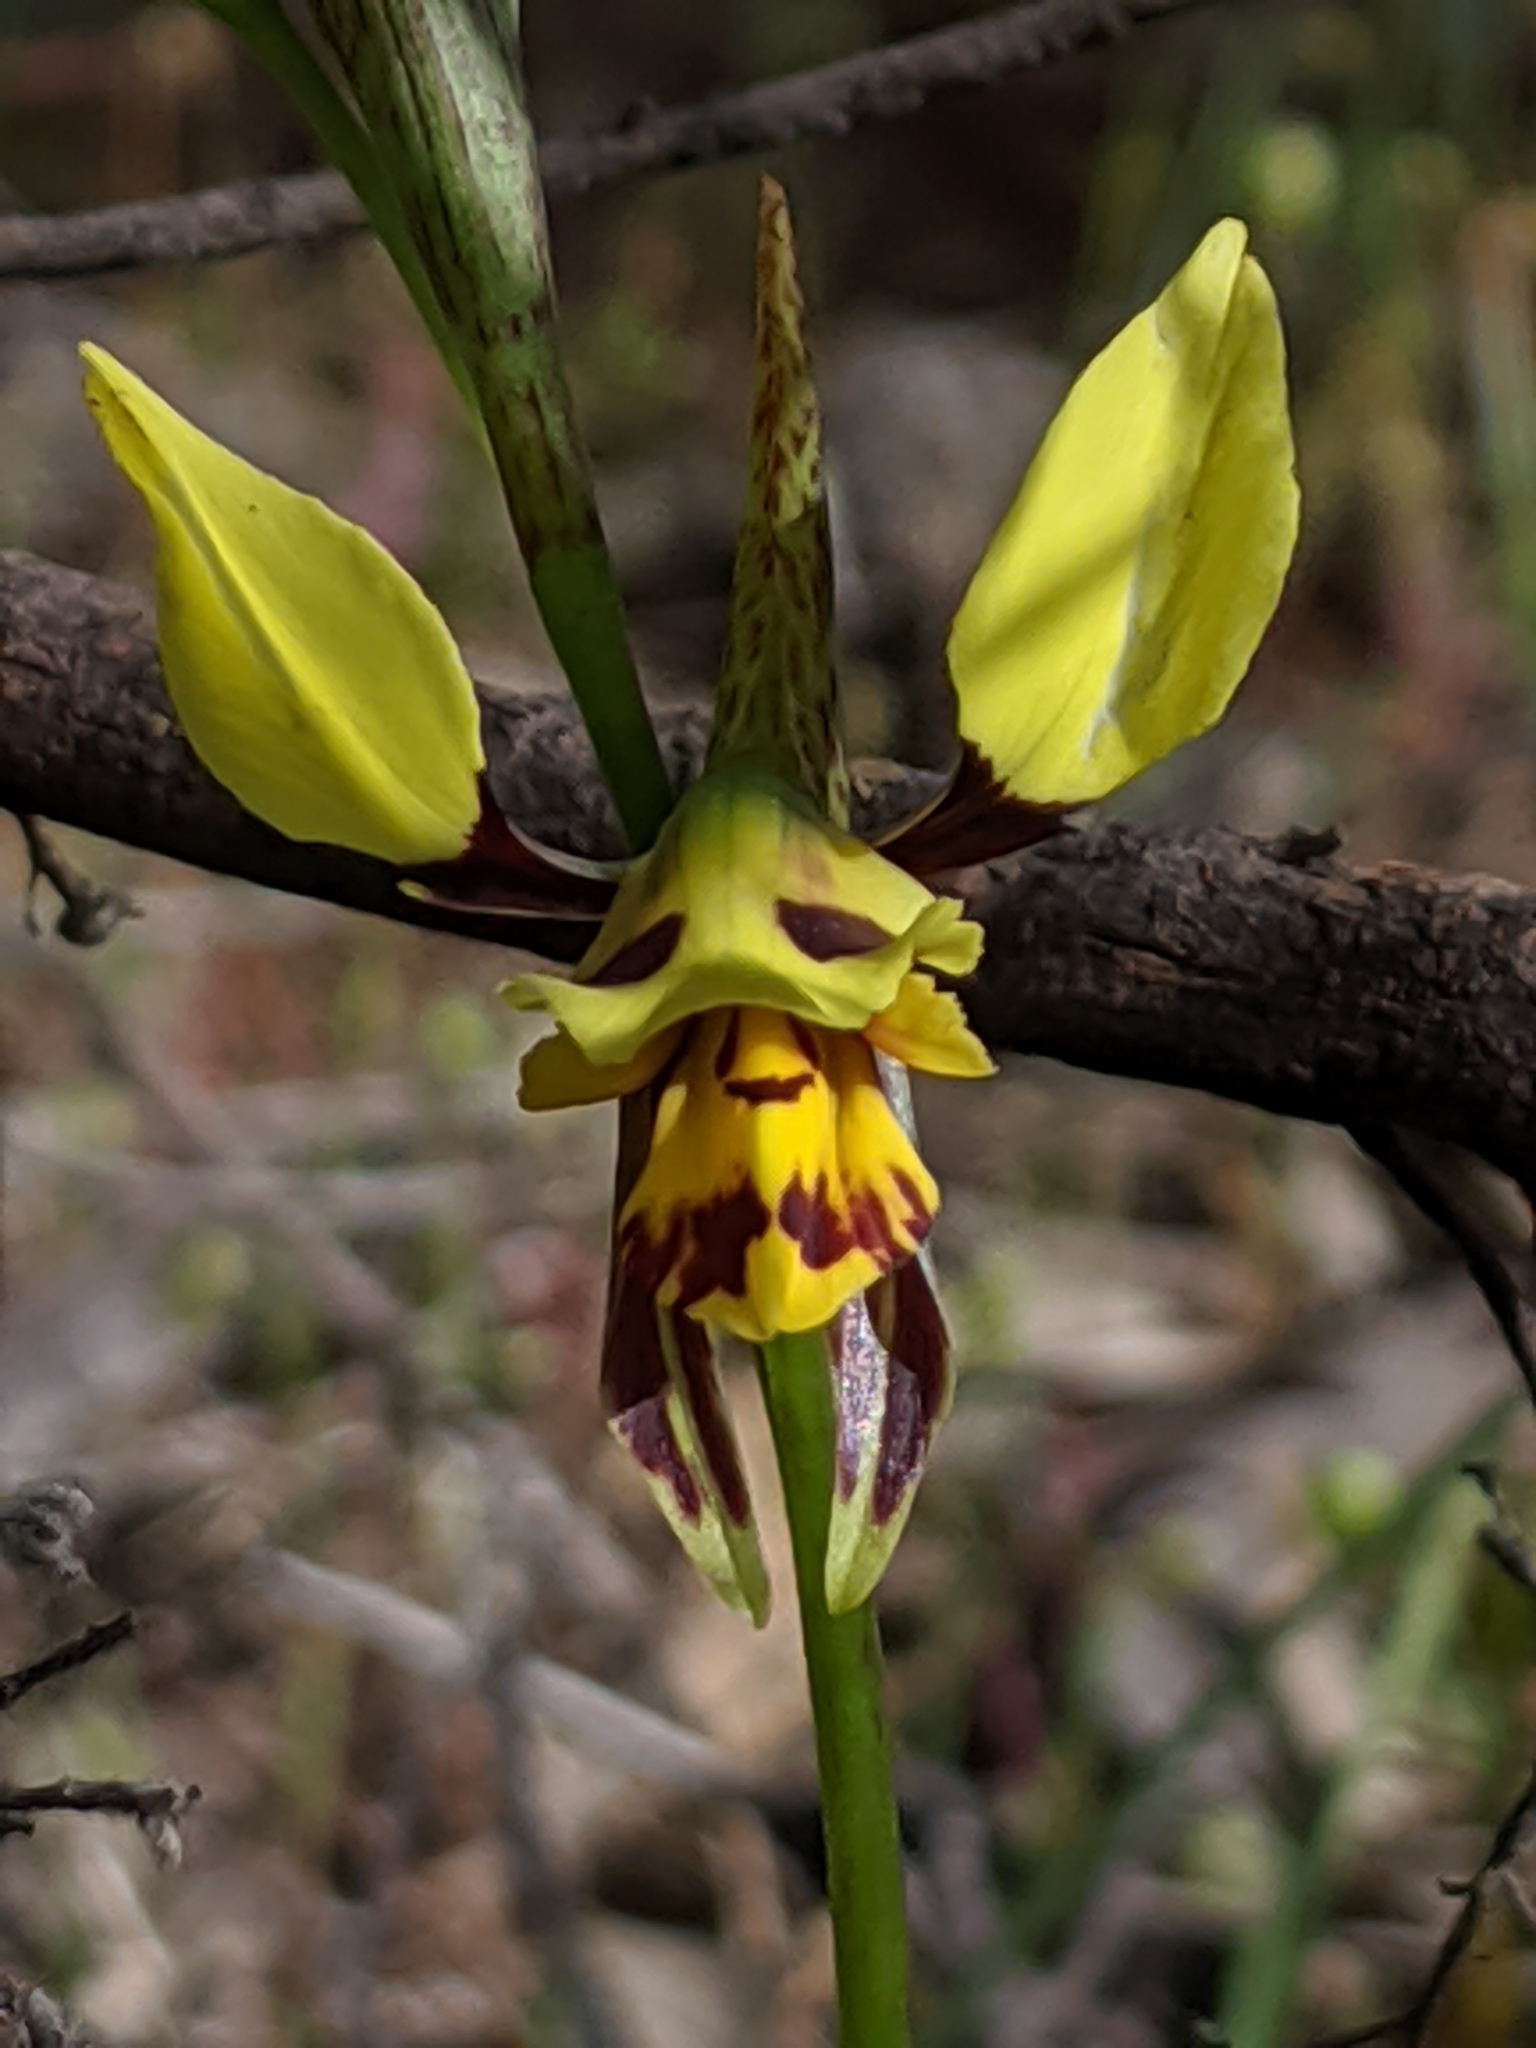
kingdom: Plantae
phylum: Tracheophyta
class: Liliopsida
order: Asparagales
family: Orchidaceae
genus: Diuris
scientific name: Diuris sulphurea
